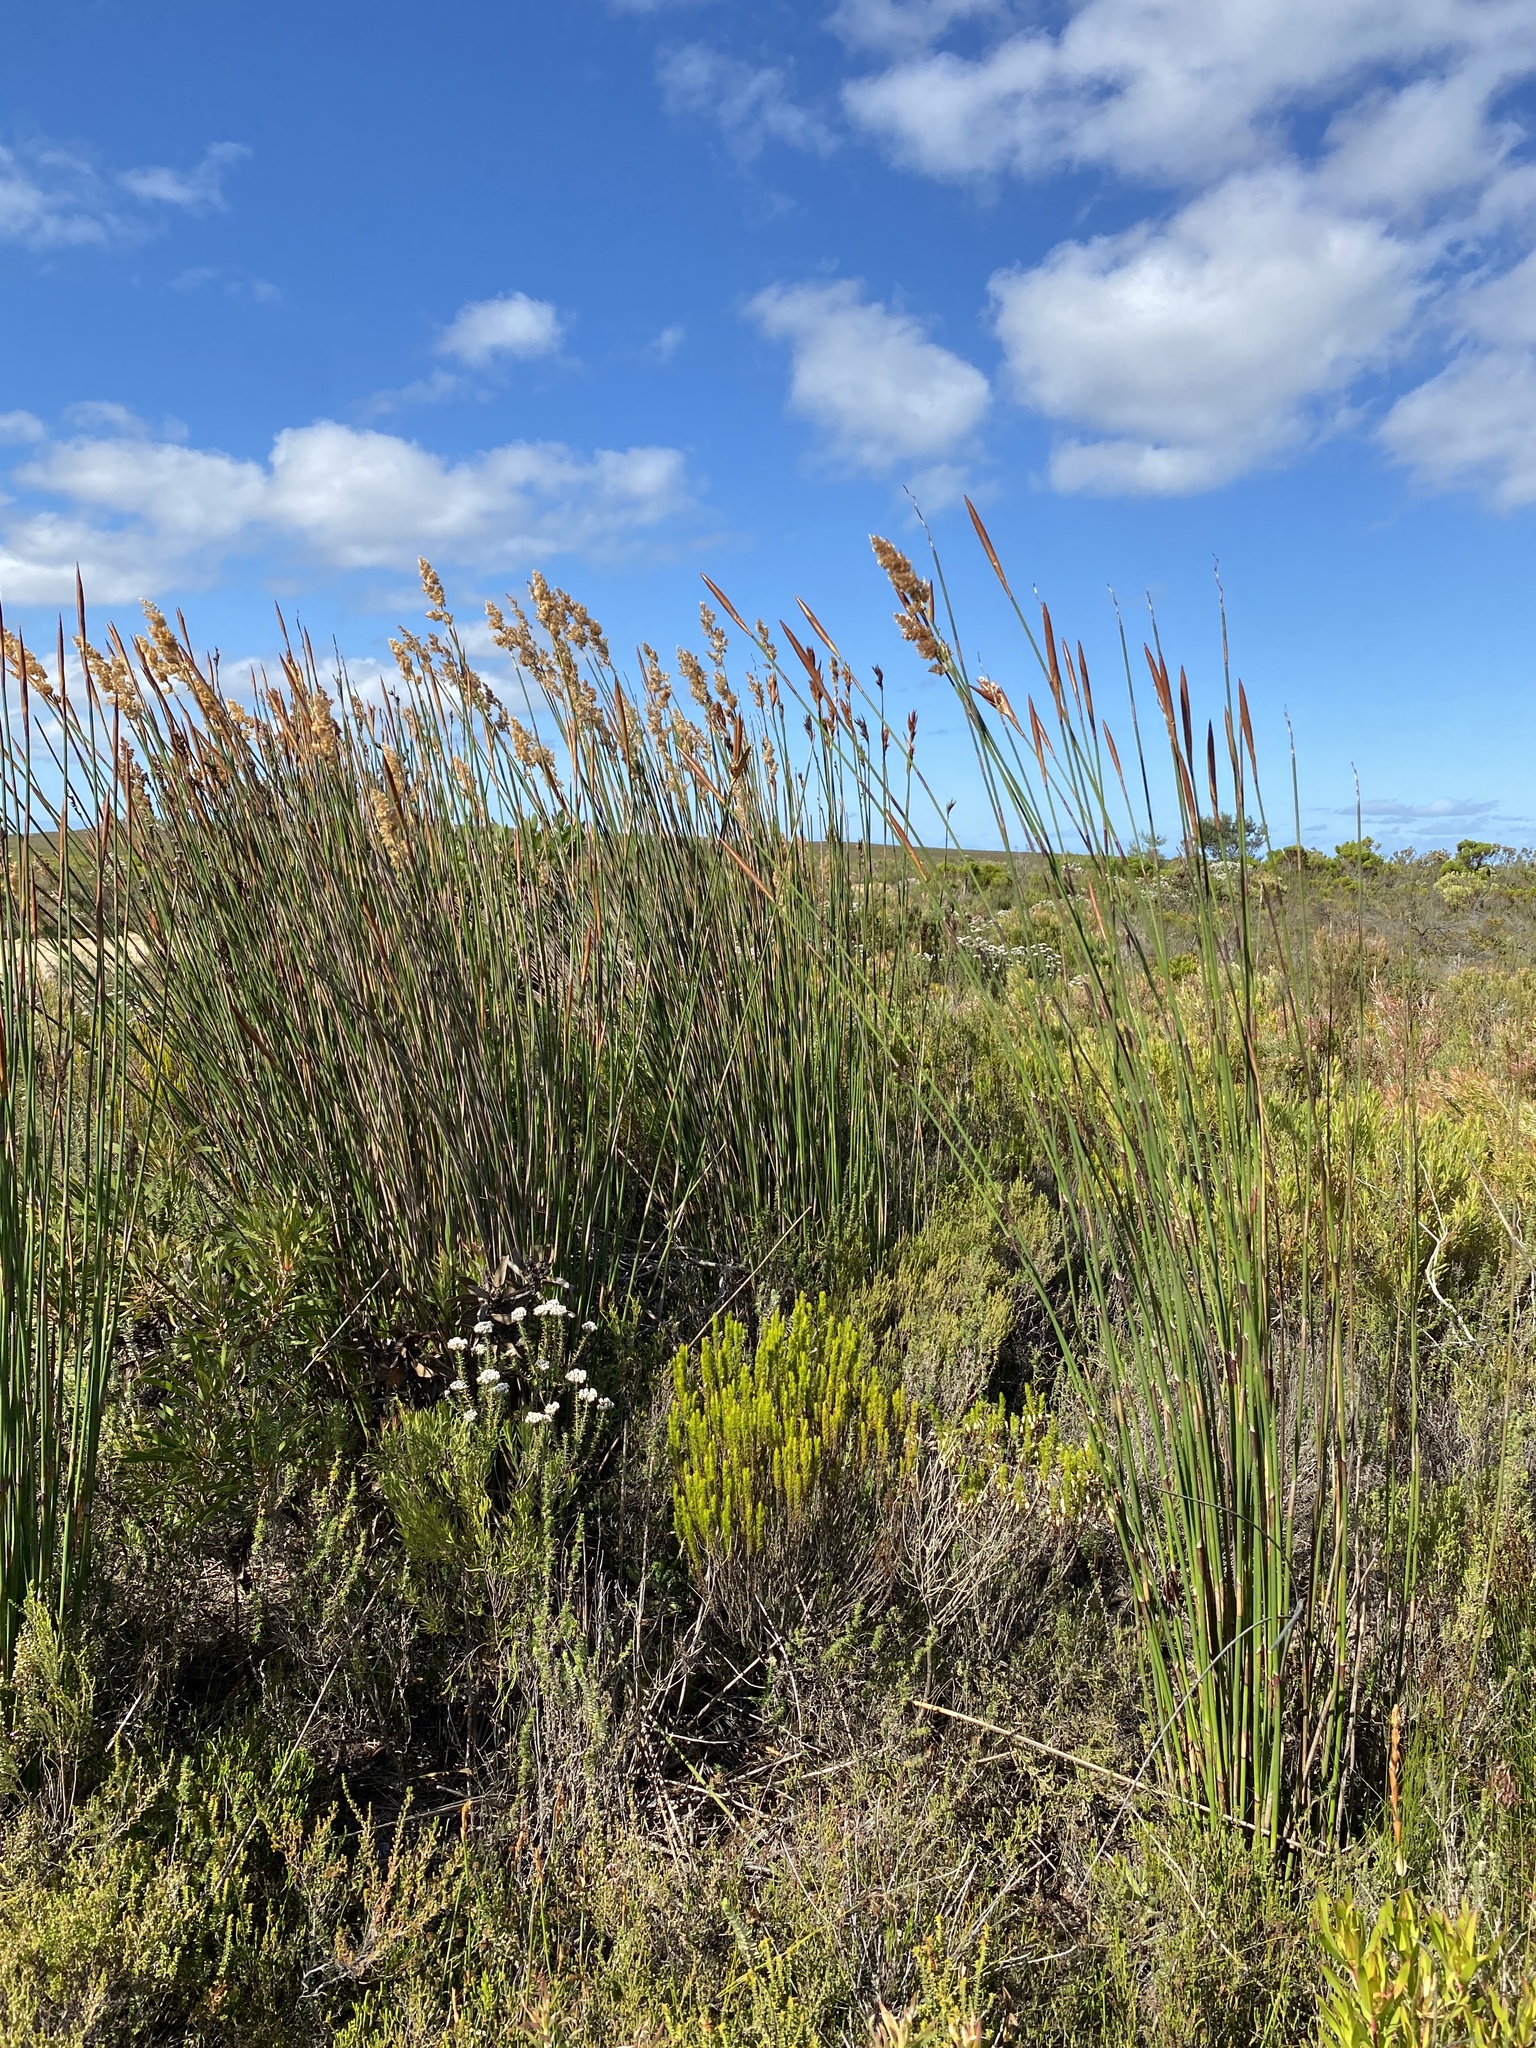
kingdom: Plantae
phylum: Tracheophyta
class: Liliopsida
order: Poales
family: Restionaceae
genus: Ceratocaryum
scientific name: Ceratocaryum argenteum
